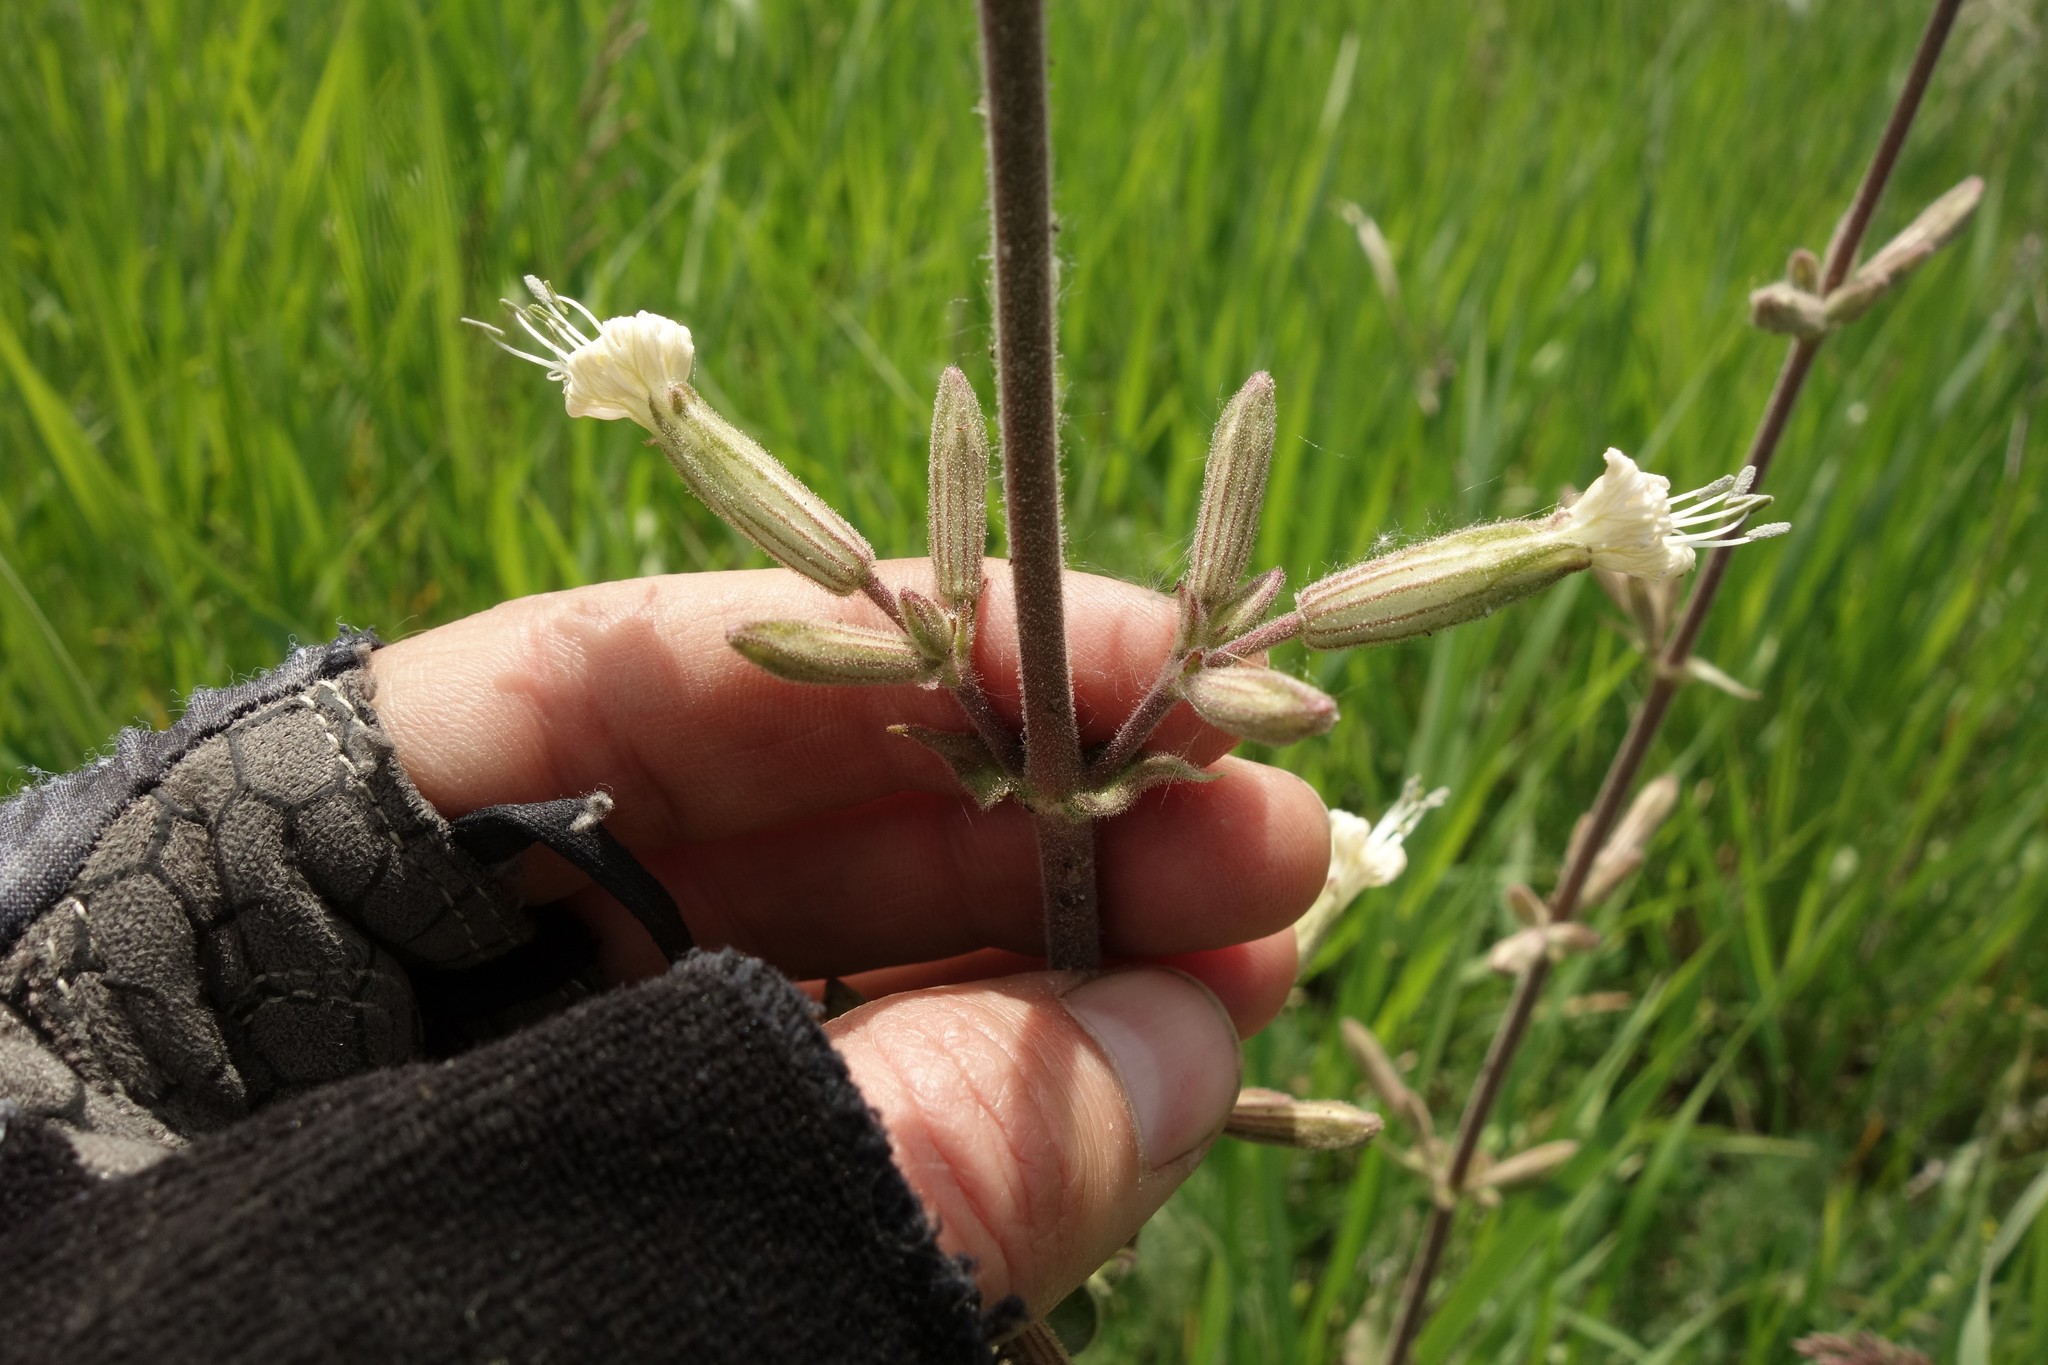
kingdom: Plantae
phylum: Tracheophyta
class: Magnoliopsida
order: Caryophyllales
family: Caryophyllaceae
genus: Silene
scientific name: Silene viscosa
